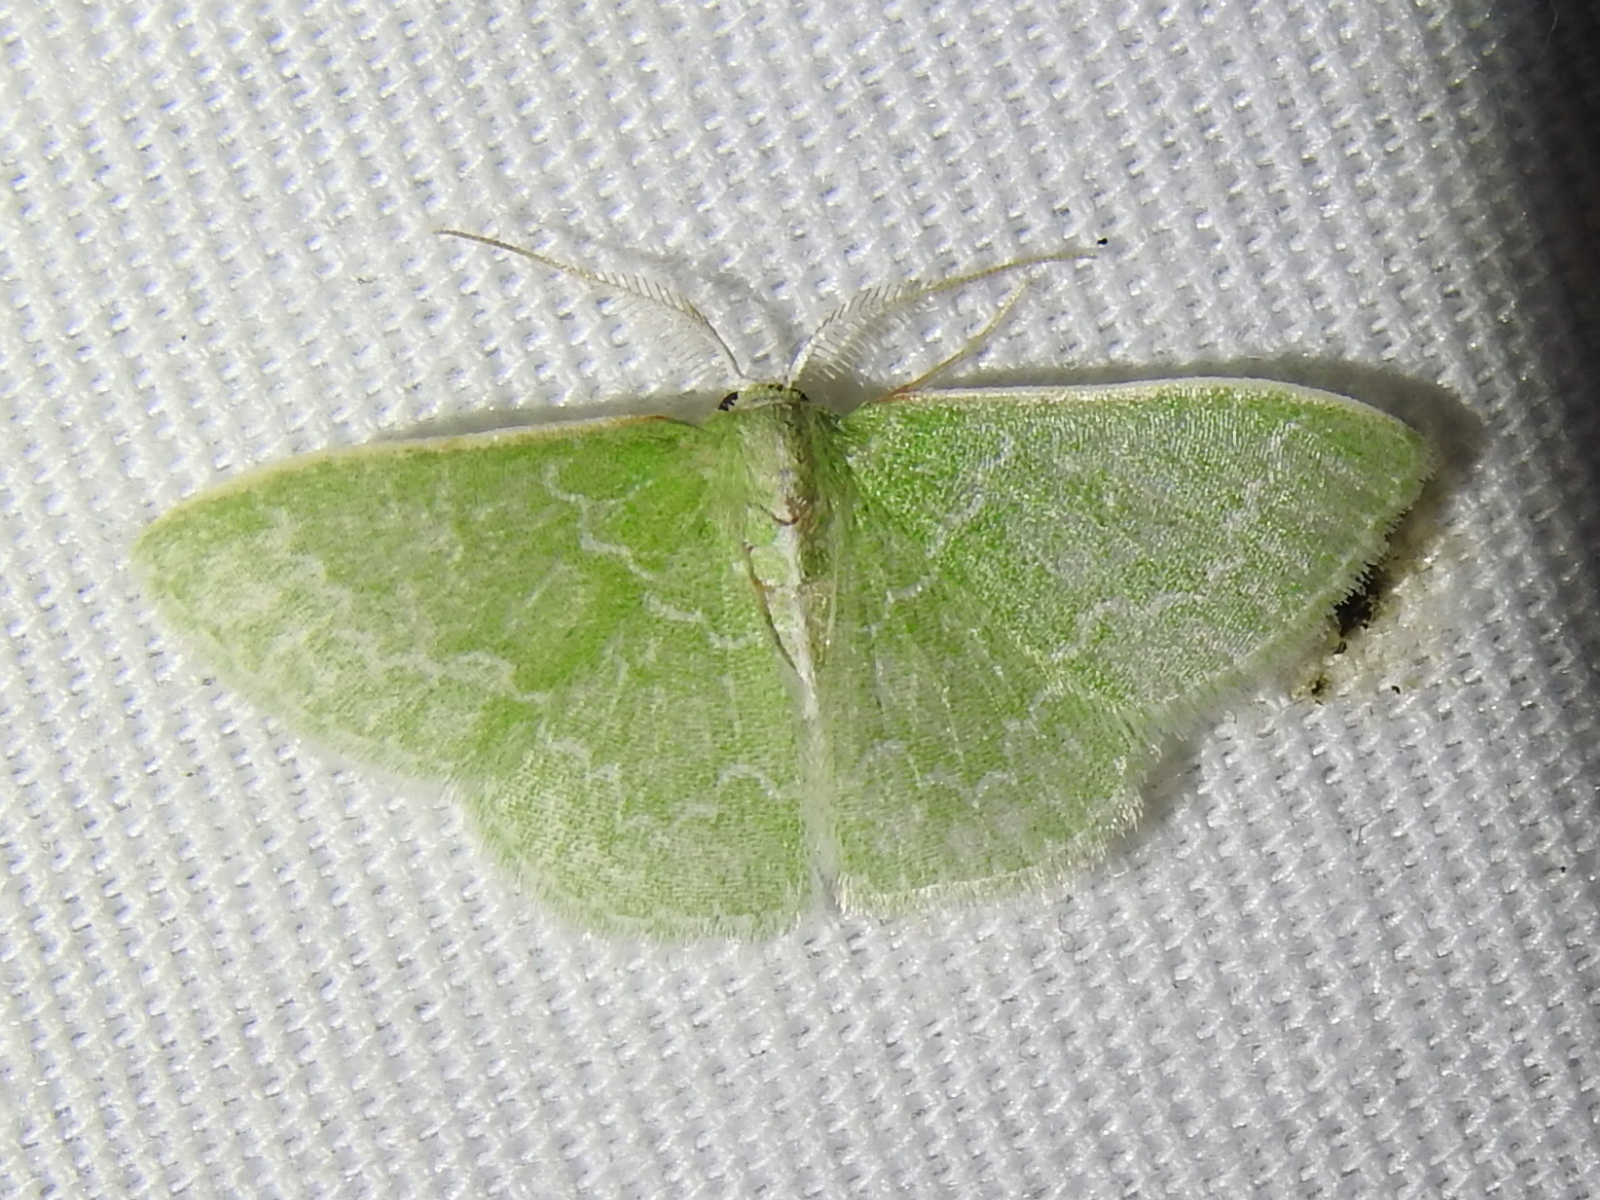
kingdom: Animalia
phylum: Arthropoda
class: Insecta
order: Lepidoptera
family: Geometridae
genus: Synchlora
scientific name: Synchlora frondaria
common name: Southern emerald
